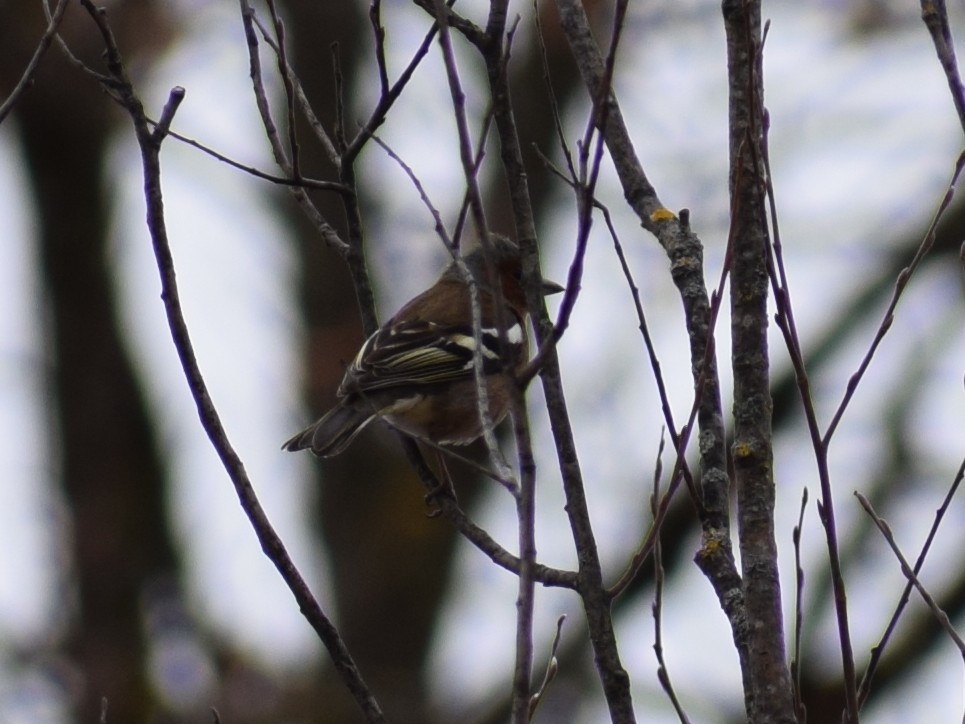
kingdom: Animalia
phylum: Chordata
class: Aves
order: Passeriformes
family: Fringillidae
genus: Fringilla
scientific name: Fringilla coelebs
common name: Common chaffinch
